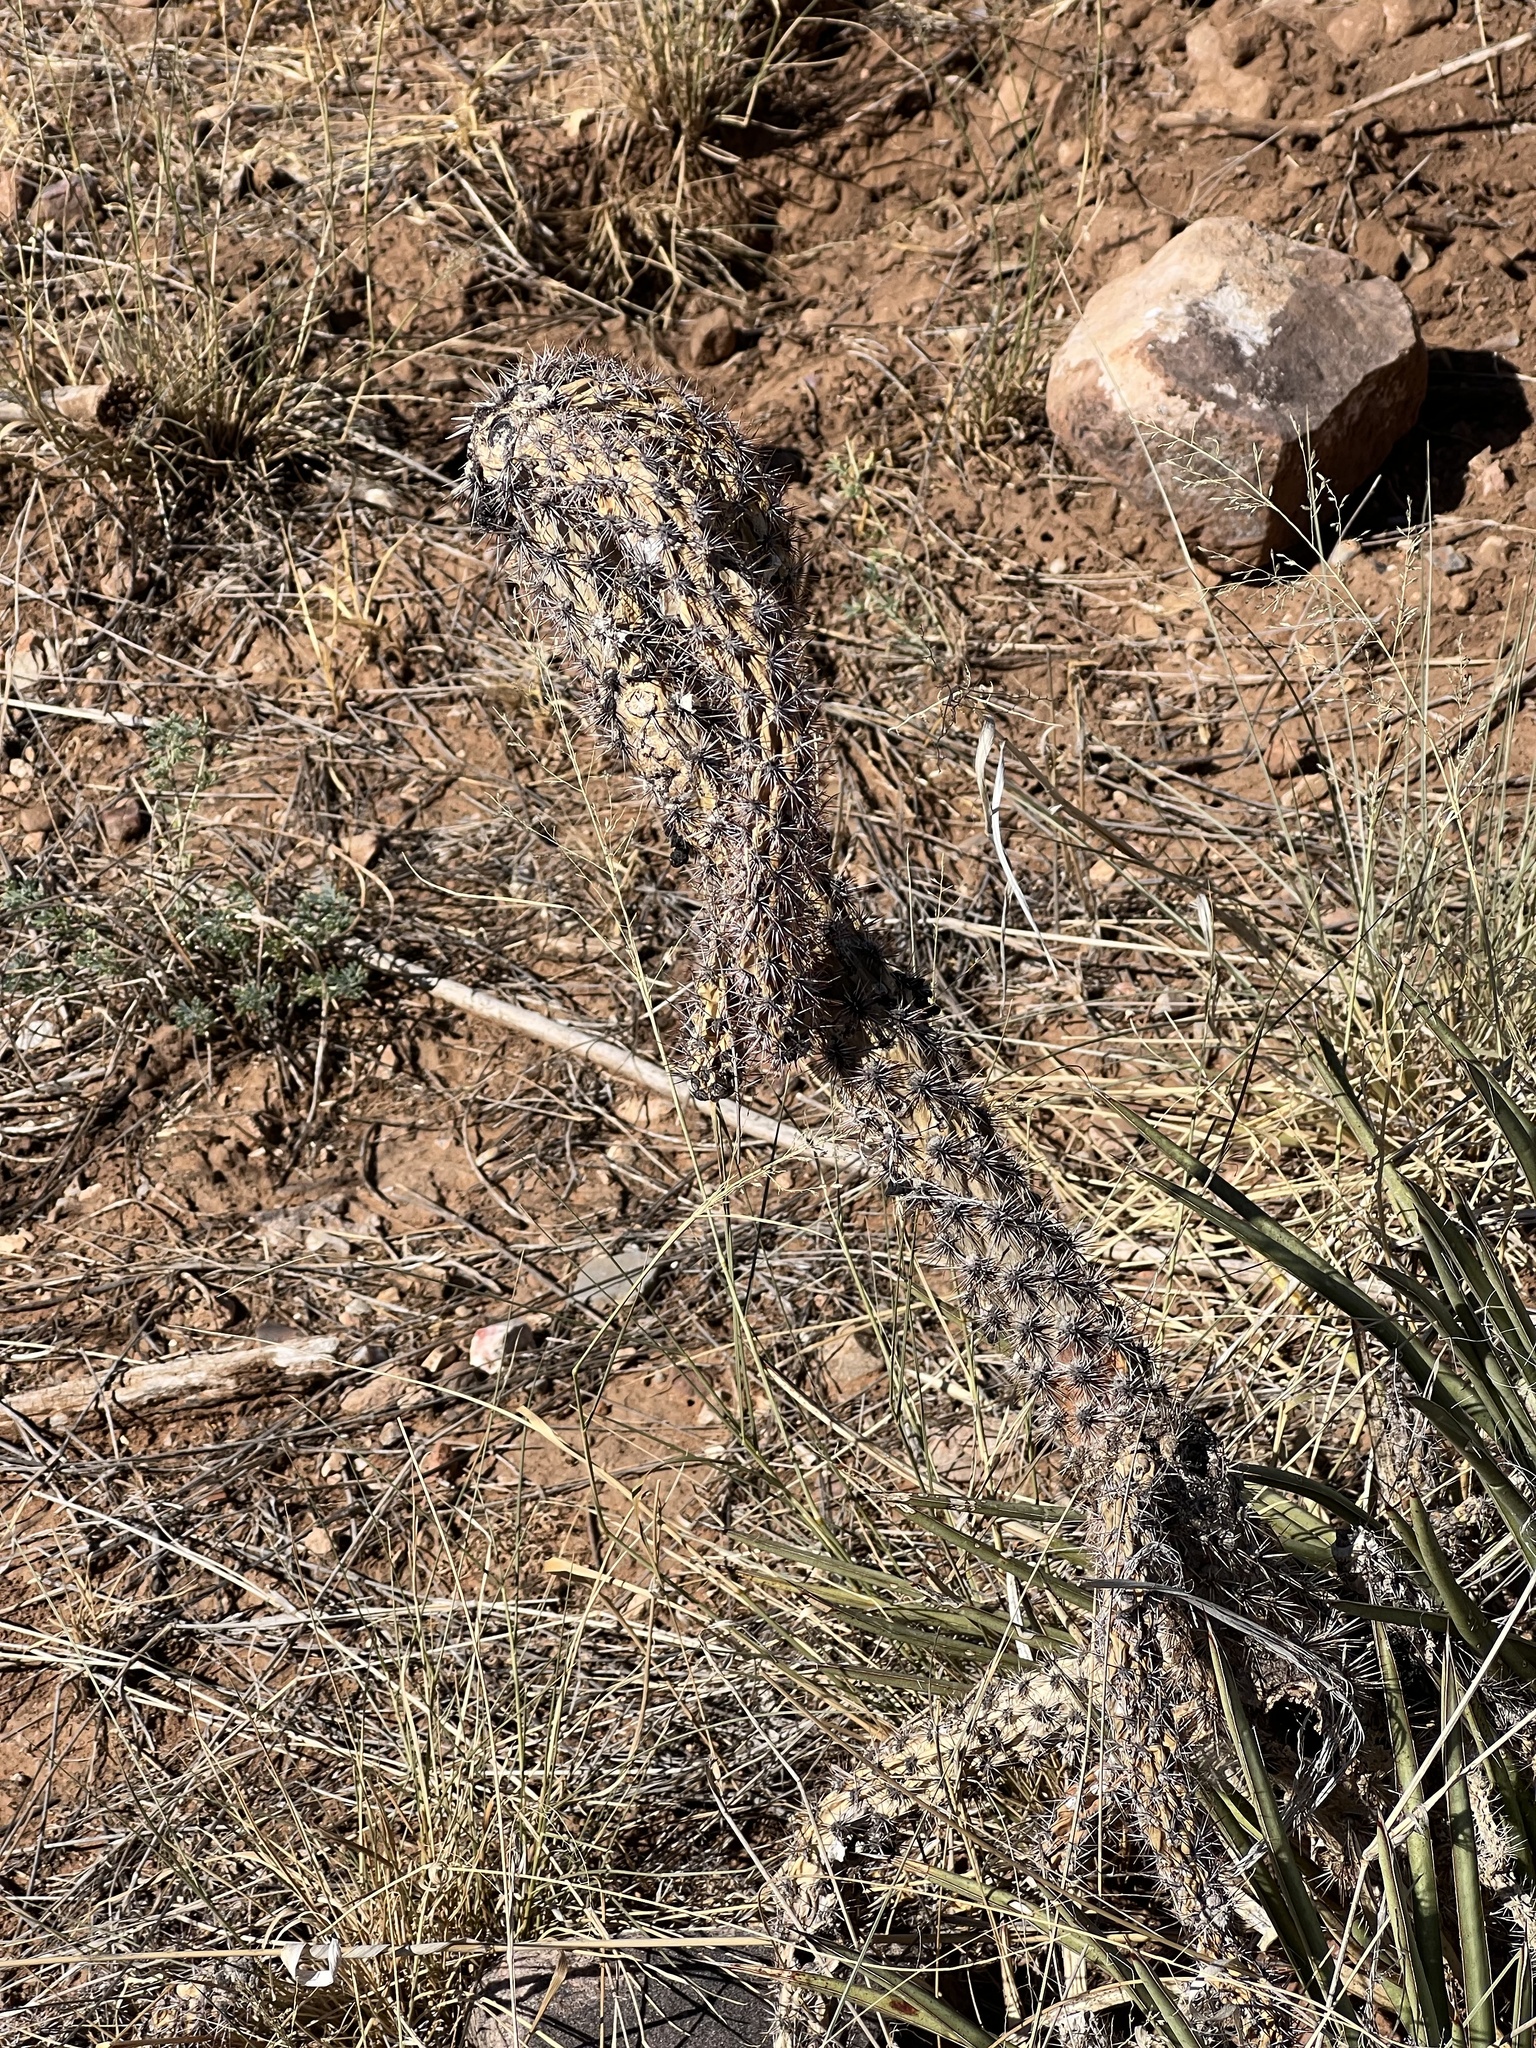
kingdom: Plantae
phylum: Tracheophyta
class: Magnoliopsida
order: Caryophyllales
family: Cactaceae
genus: Cylindropuntia
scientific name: Cylindropuntia imbricata
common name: Candelabrum cactus
